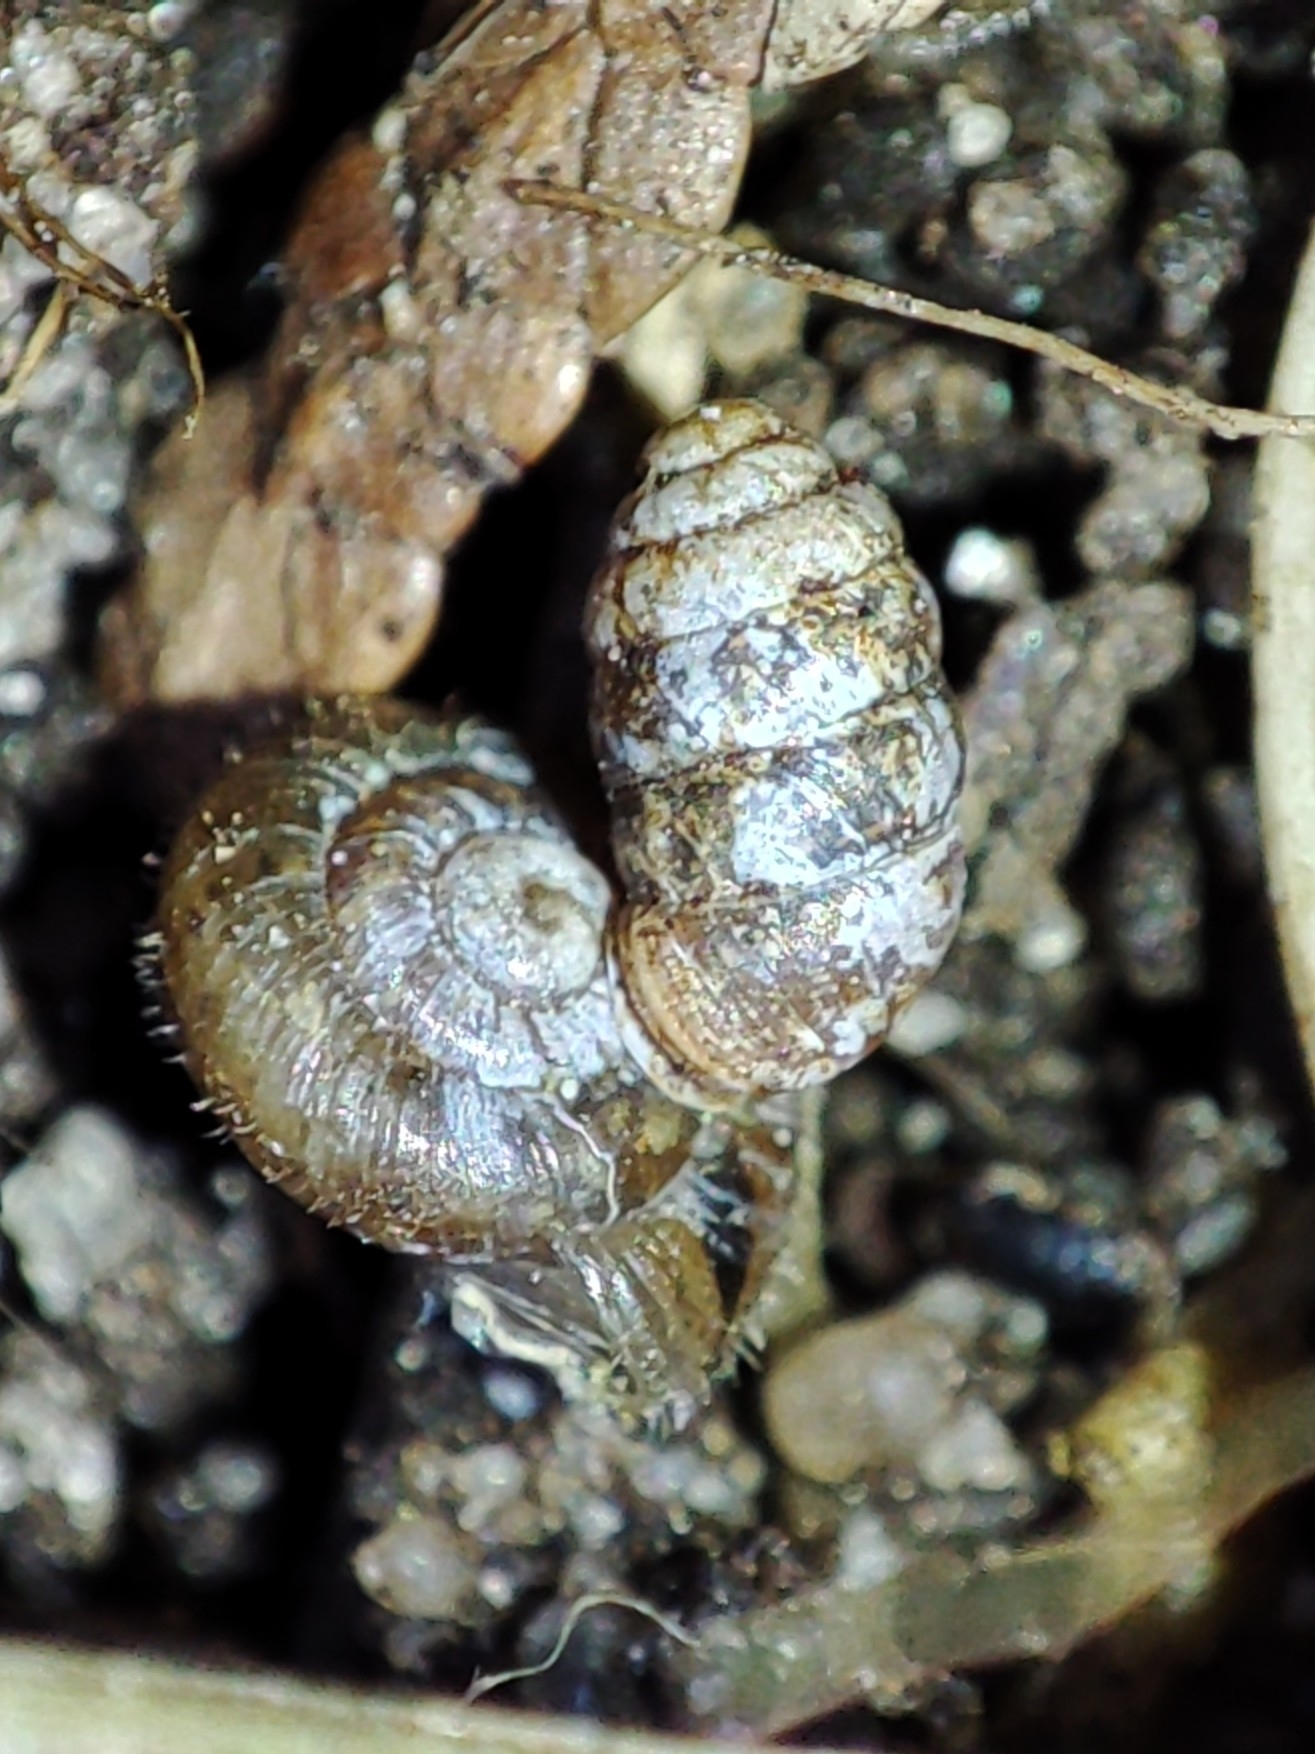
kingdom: Animalia
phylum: Mollusca
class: Gastropoda
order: Stylommatophora
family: Pupillidae
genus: Pupilla
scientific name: Pupilla muscorum
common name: Moss chrysalis snail
